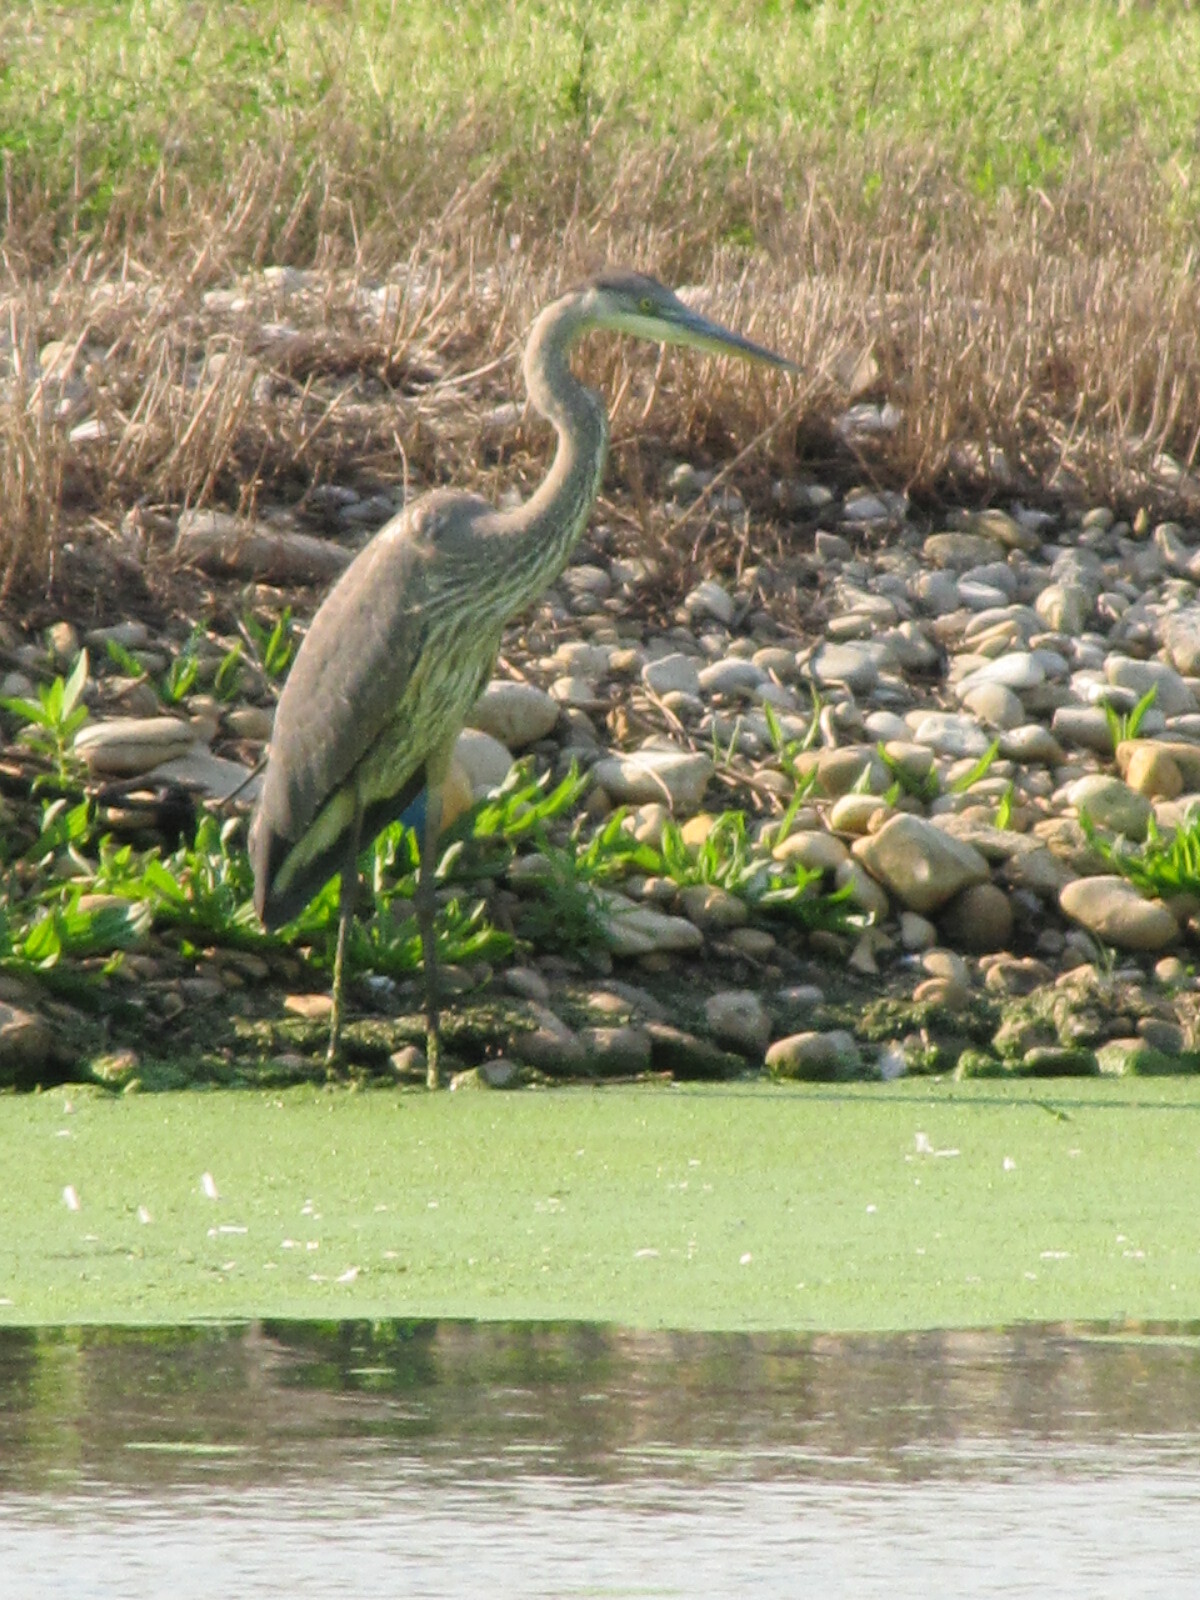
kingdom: Animalia
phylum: Chordata
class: Aves
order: Pelecaniformes
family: Ardeidae
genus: Ardea
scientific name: Ardea herodias
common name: Great blue heron
